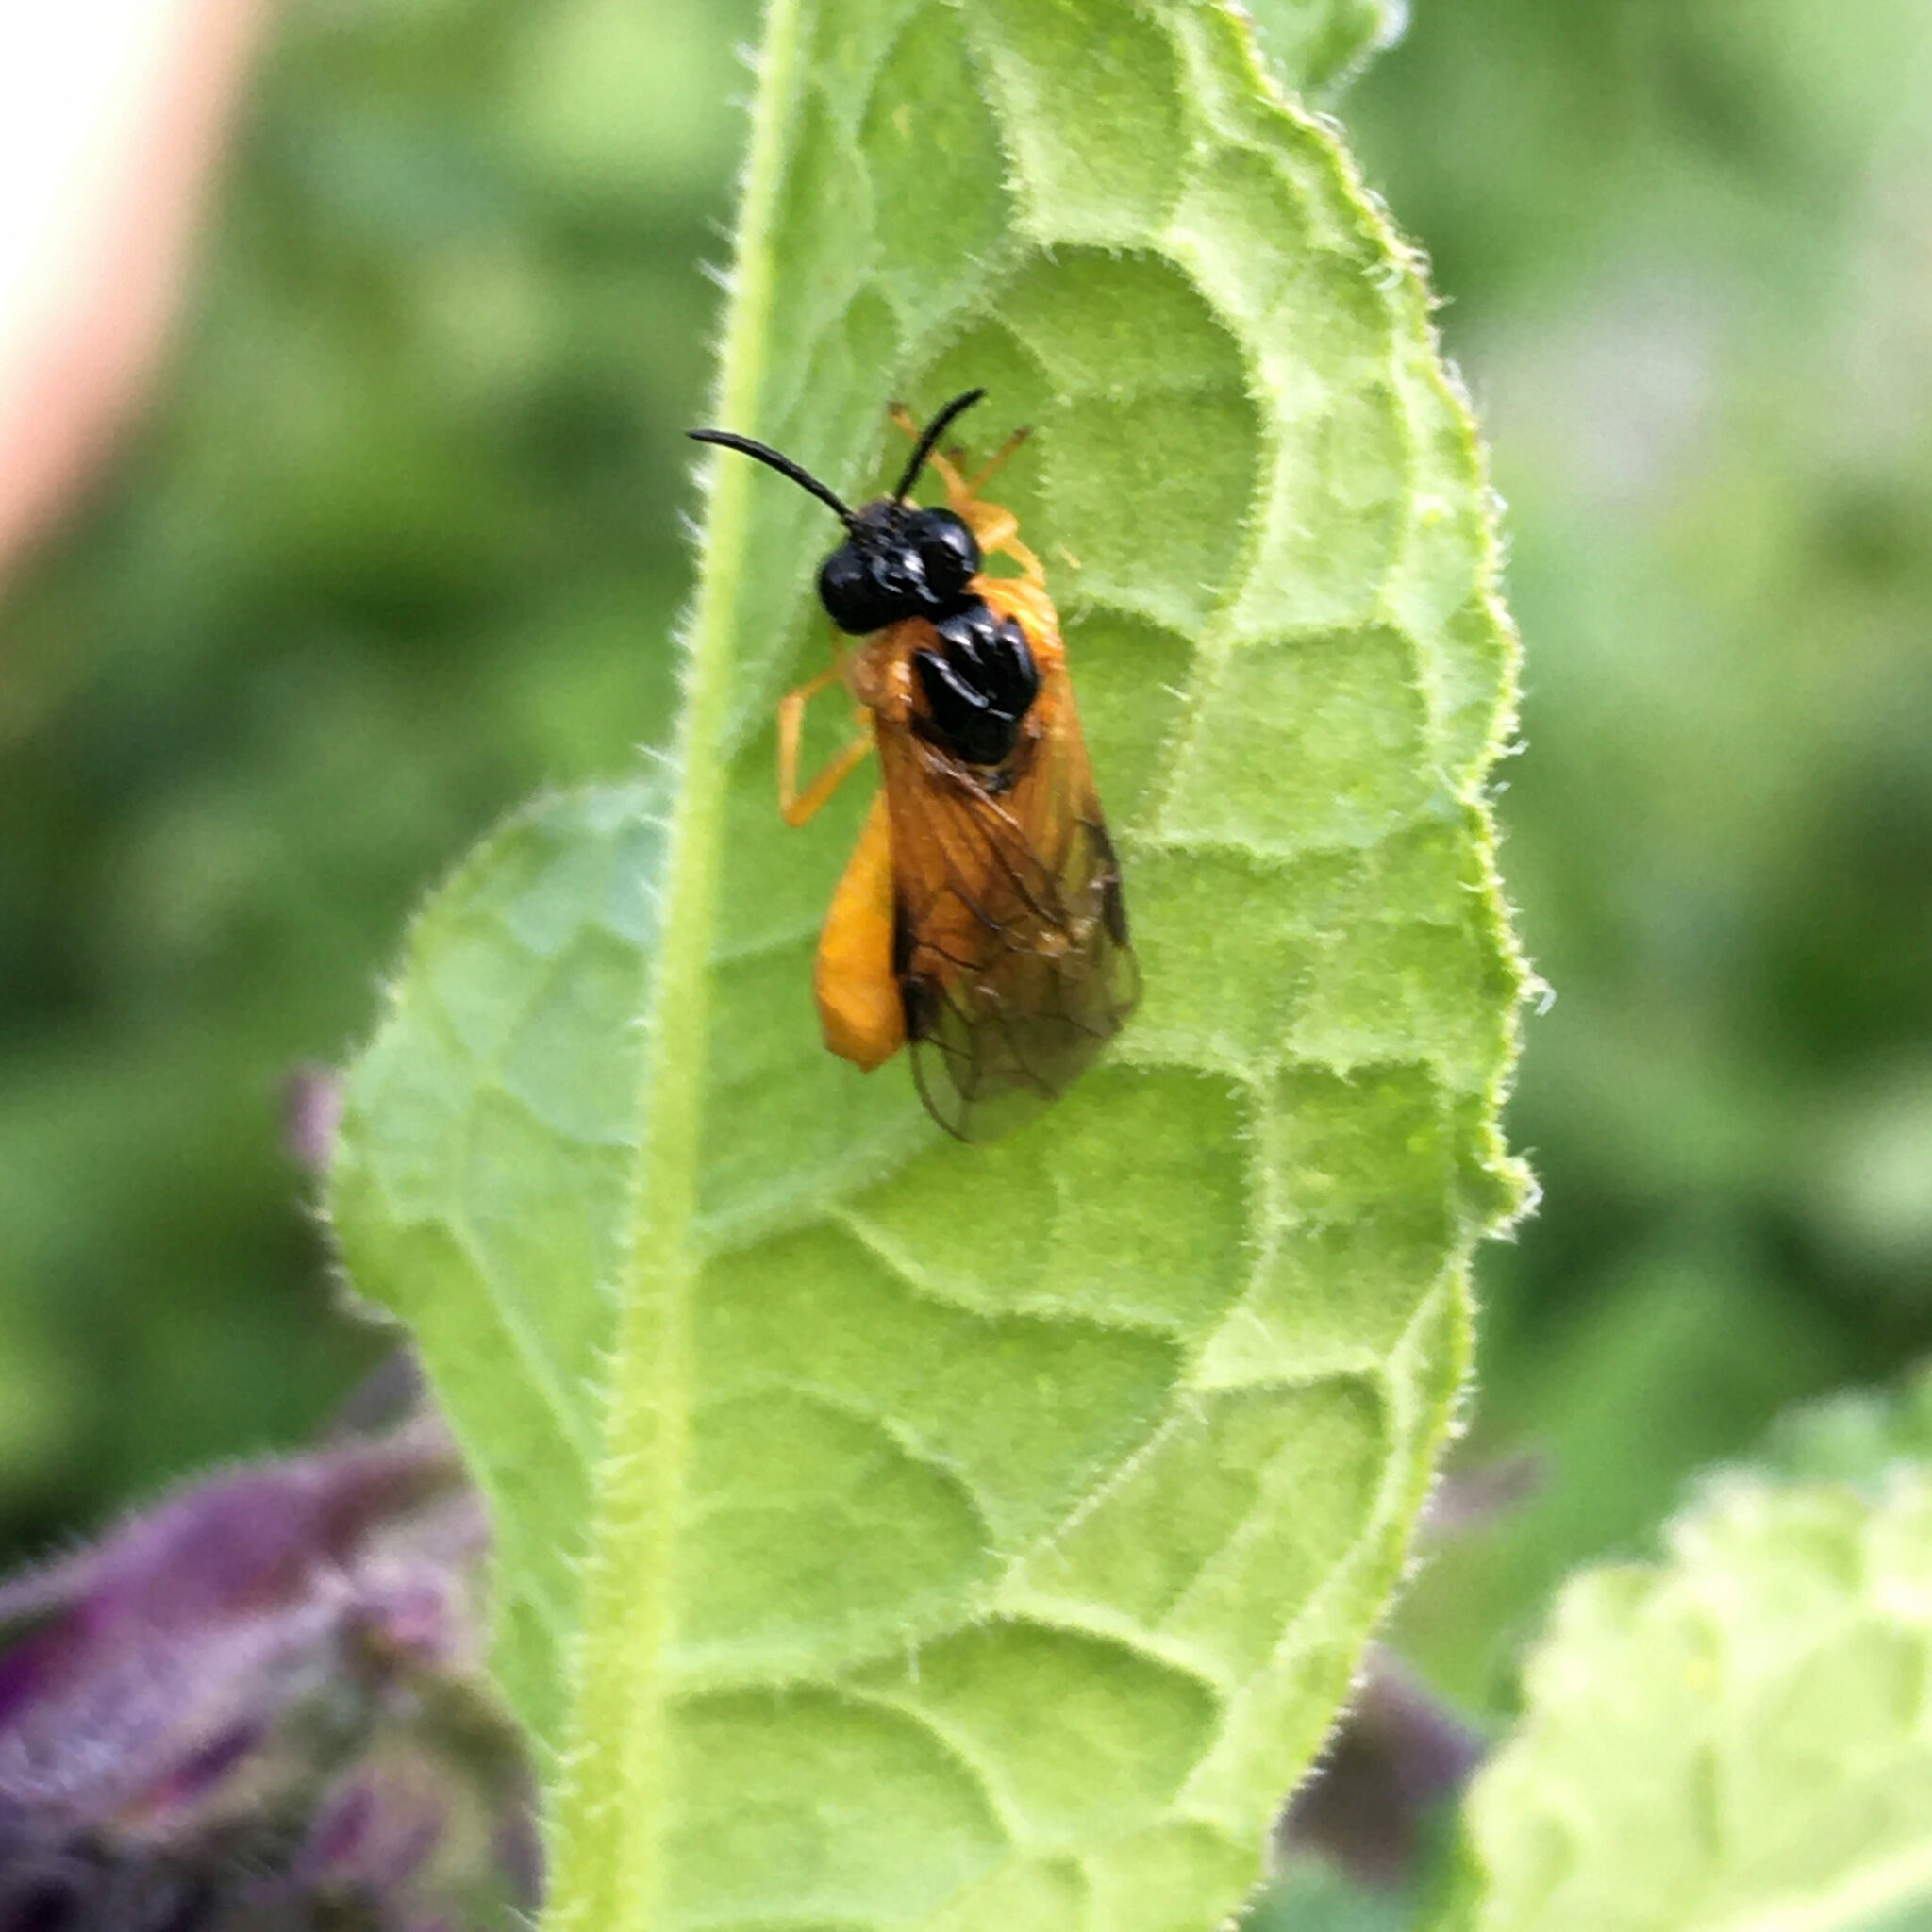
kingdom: Animalia
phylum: Arthropoda
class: Insecta
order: Hymenoptera
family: Tenthredinidae
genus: Selandria
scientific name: Selandria serva
